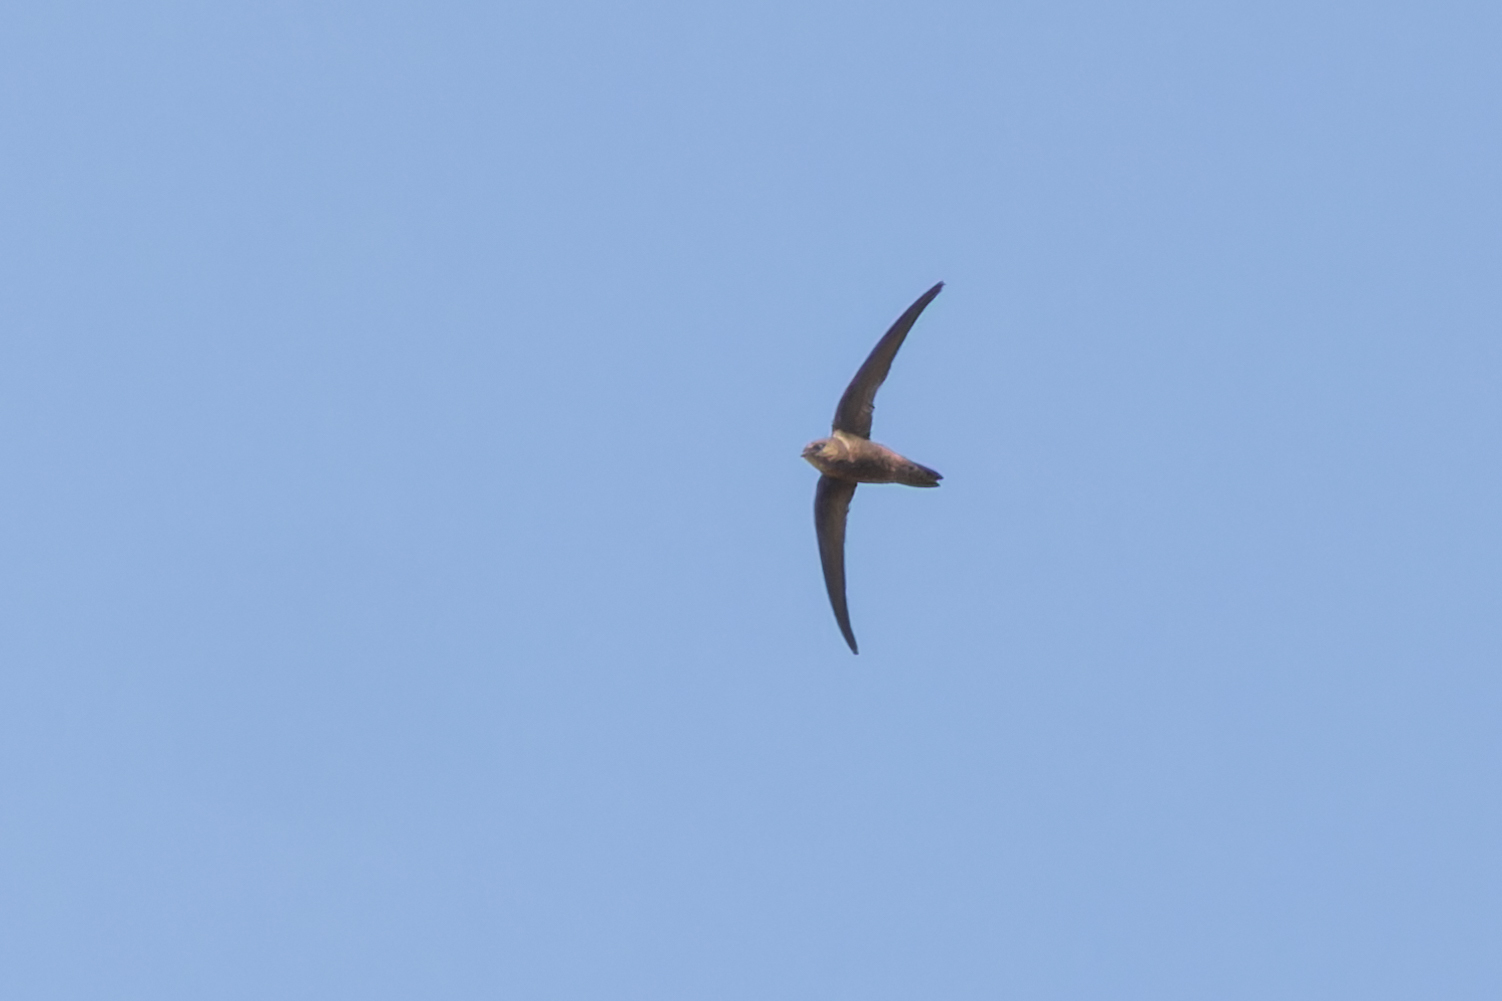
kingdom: Animalia
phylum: Chordata
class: Aves
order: Apodiformes
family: Apodidae
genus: Apus
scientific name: Apus alexandri
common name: Cape verde swift
